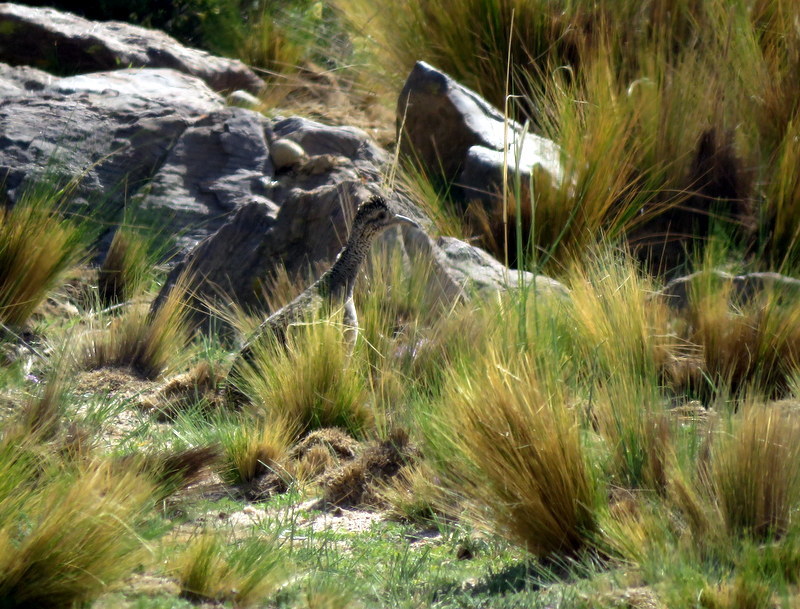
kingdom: Animalia
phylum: Chordata
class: Aves
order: Tinamiformes
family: Tinamidae
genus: Nothoprocta
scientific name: Nothoprocta ornata
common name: Ornate tinamou
